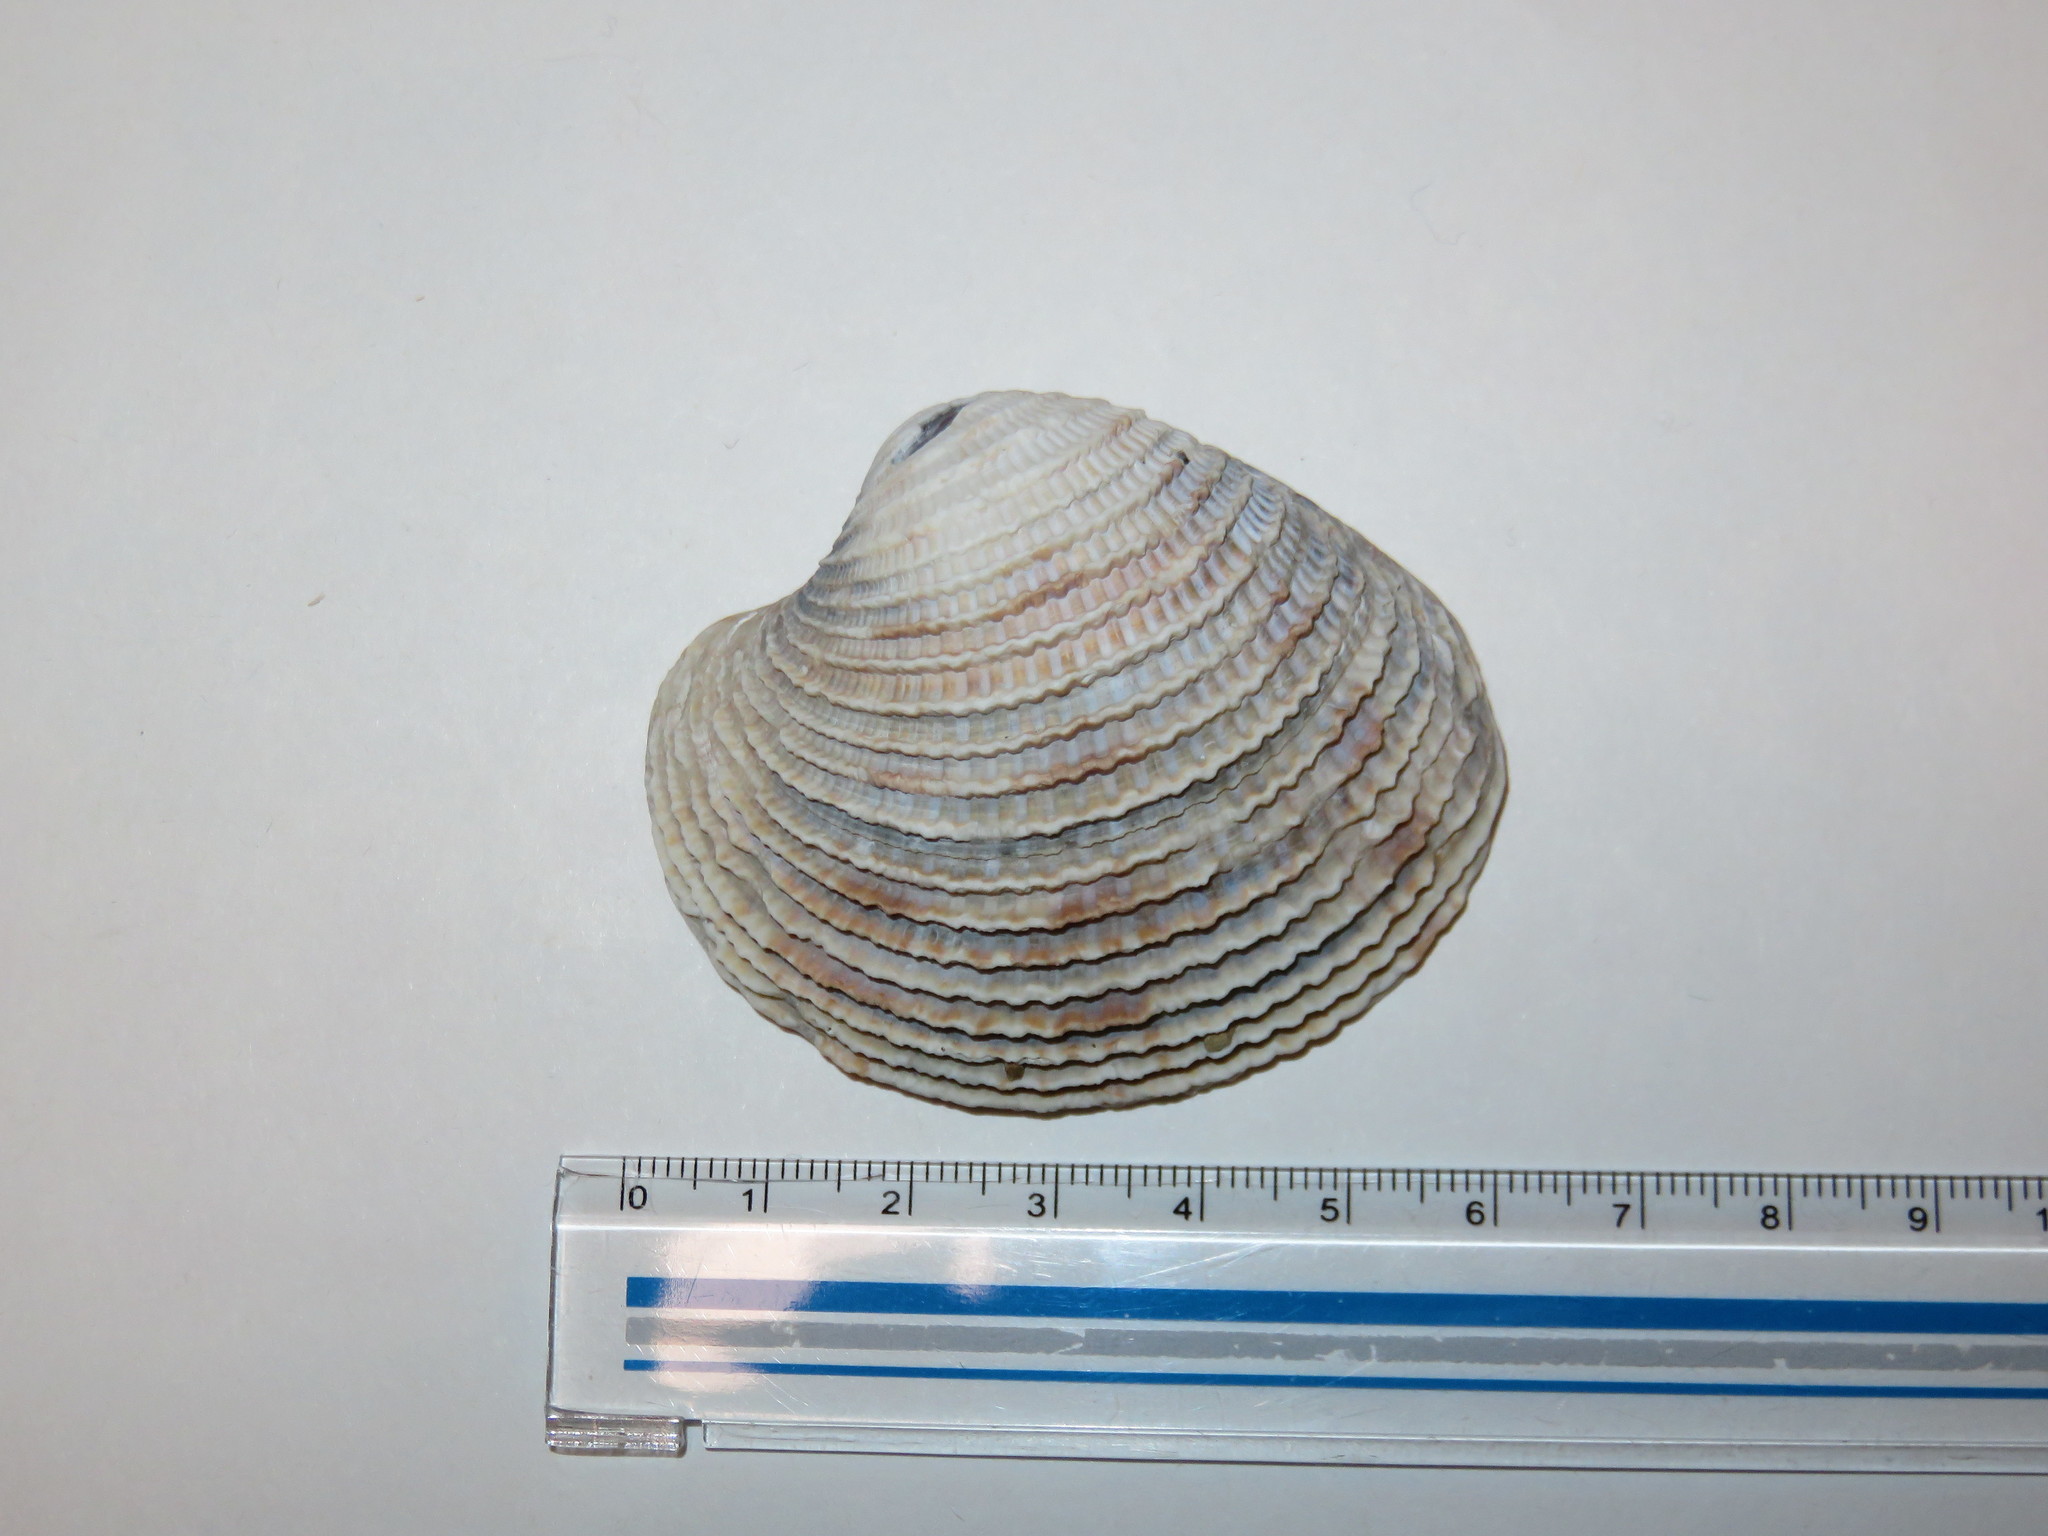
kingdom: Animalia
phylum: Mollusca
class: Bivalvia
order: Venerida
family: Veneridae
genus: Antigona
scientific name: Antigona lamellaris
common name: Lamellate venus clam
